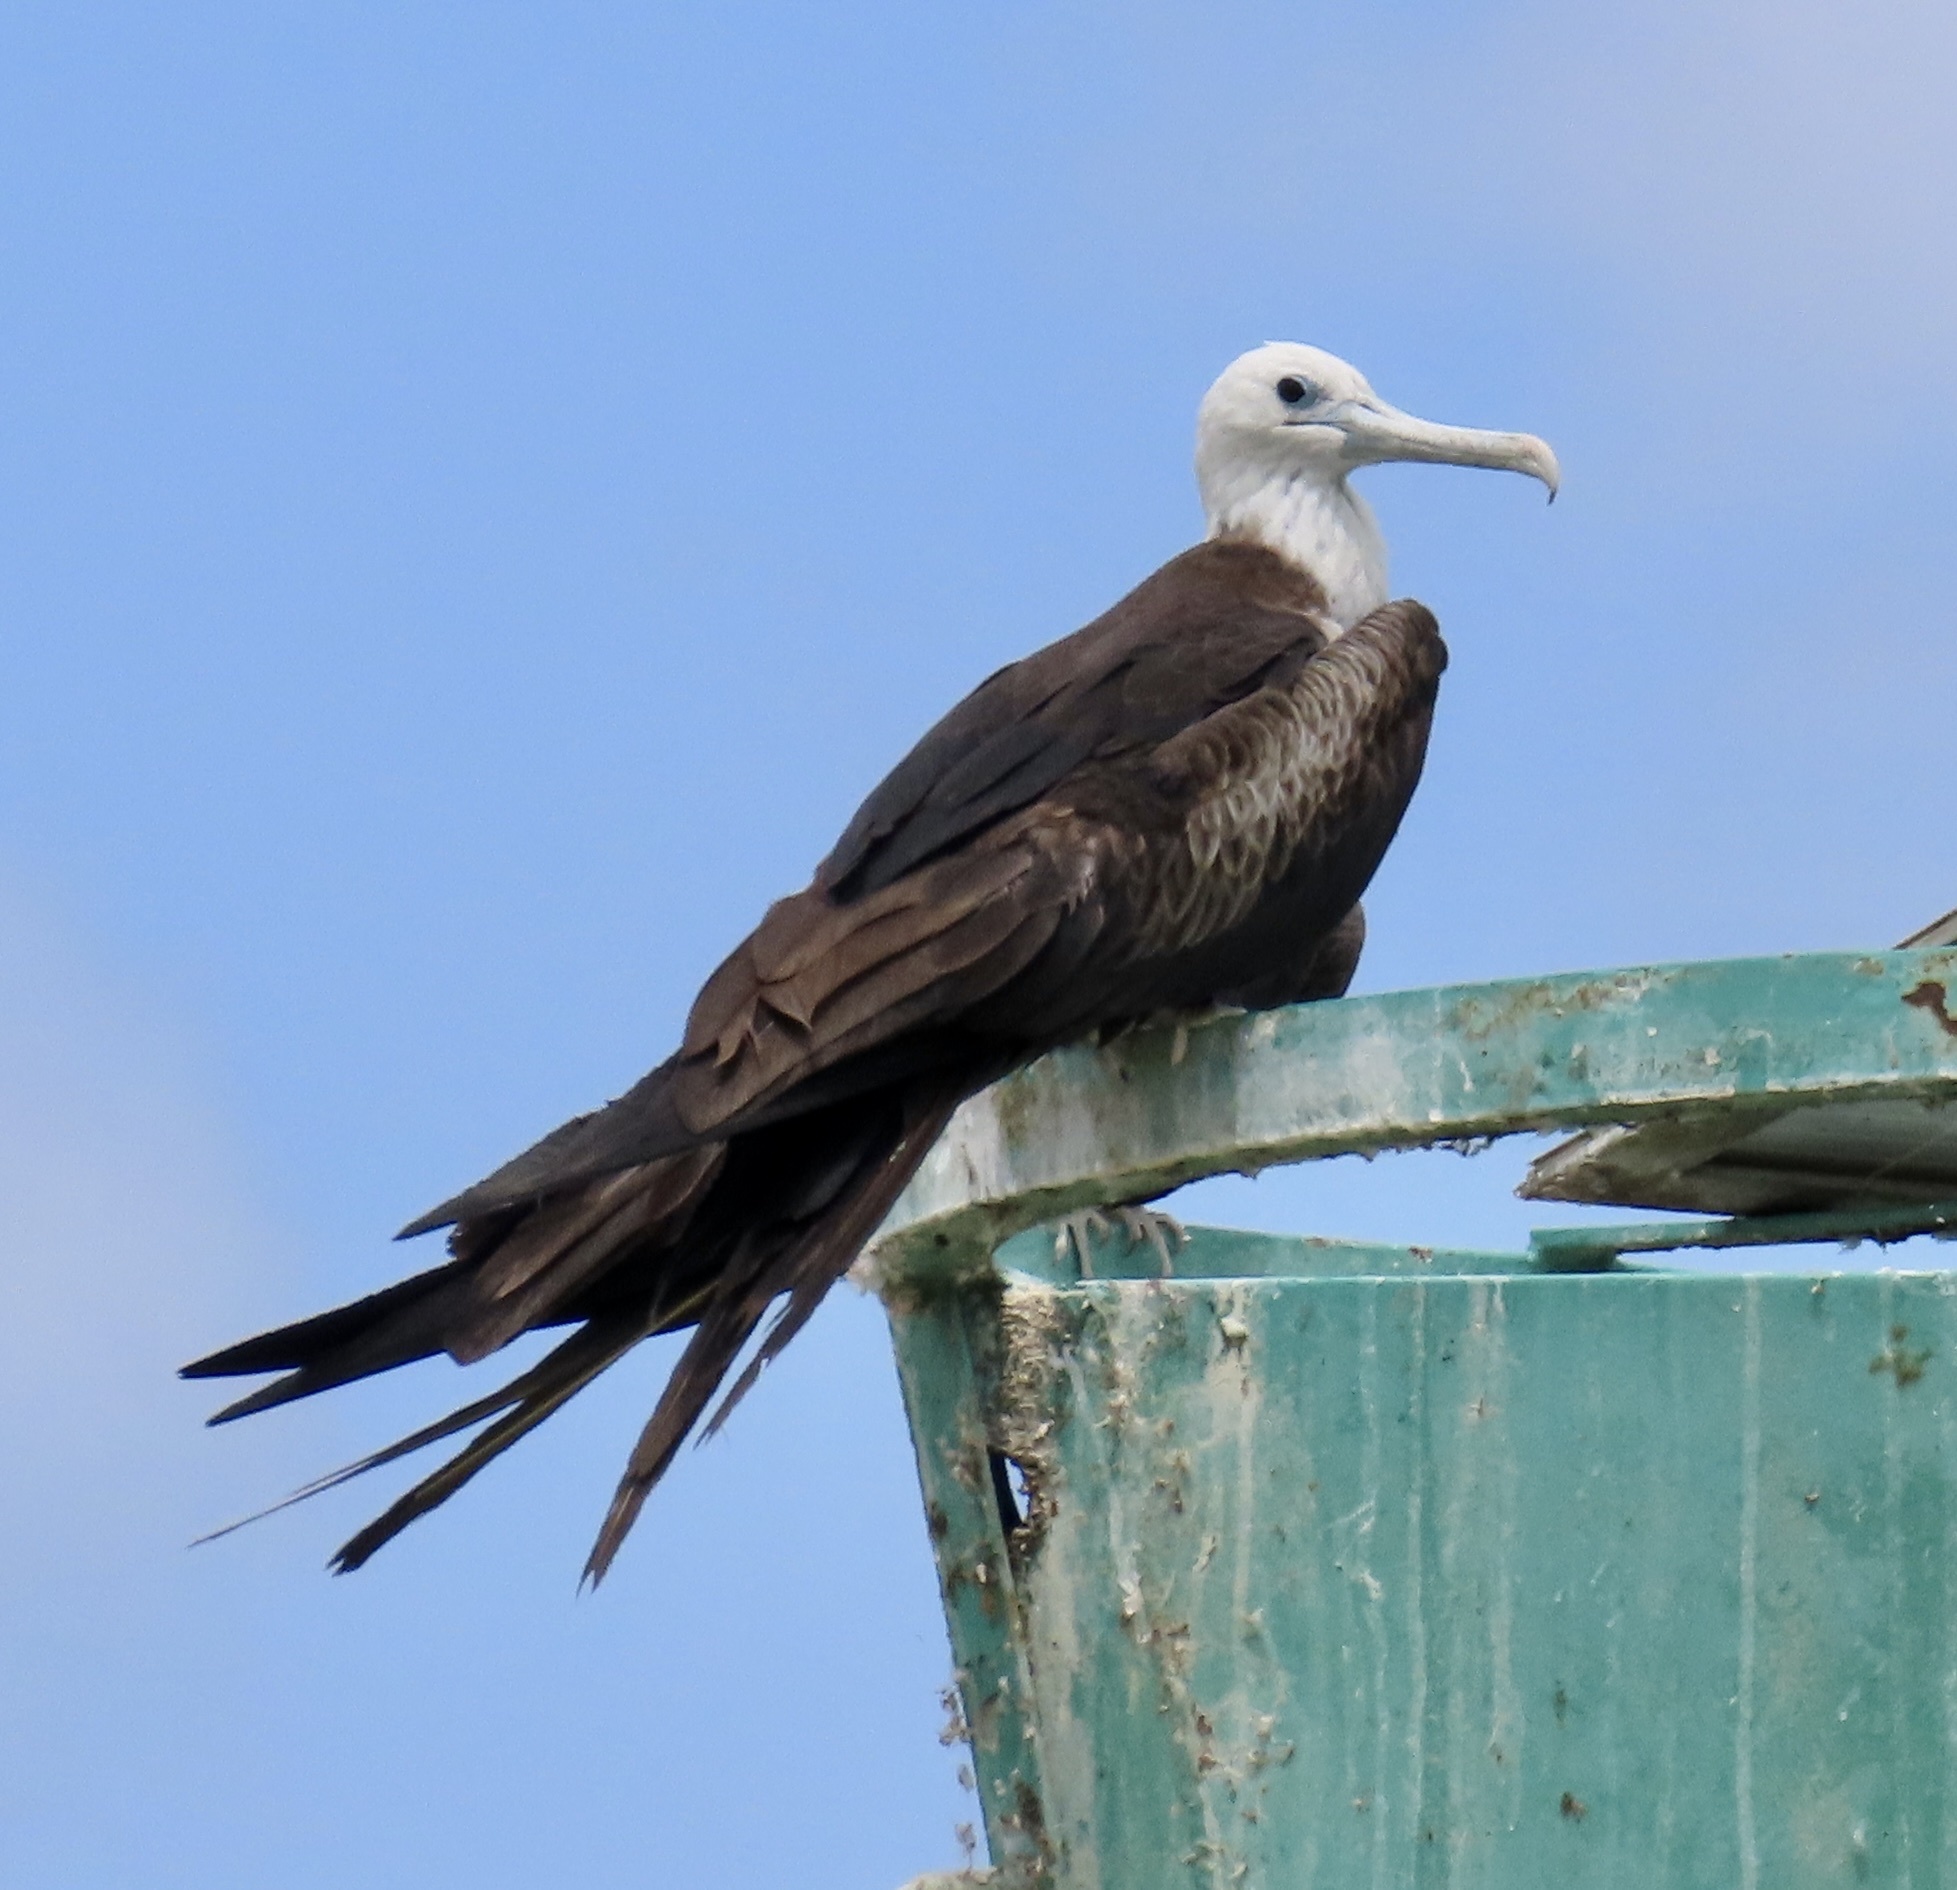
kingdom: Animalia
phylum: Chordata
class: Aves
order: Suliformes
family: Fregatidae
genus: Fregata
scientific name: Fregata magnificens
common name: Magnificent frigatebird
